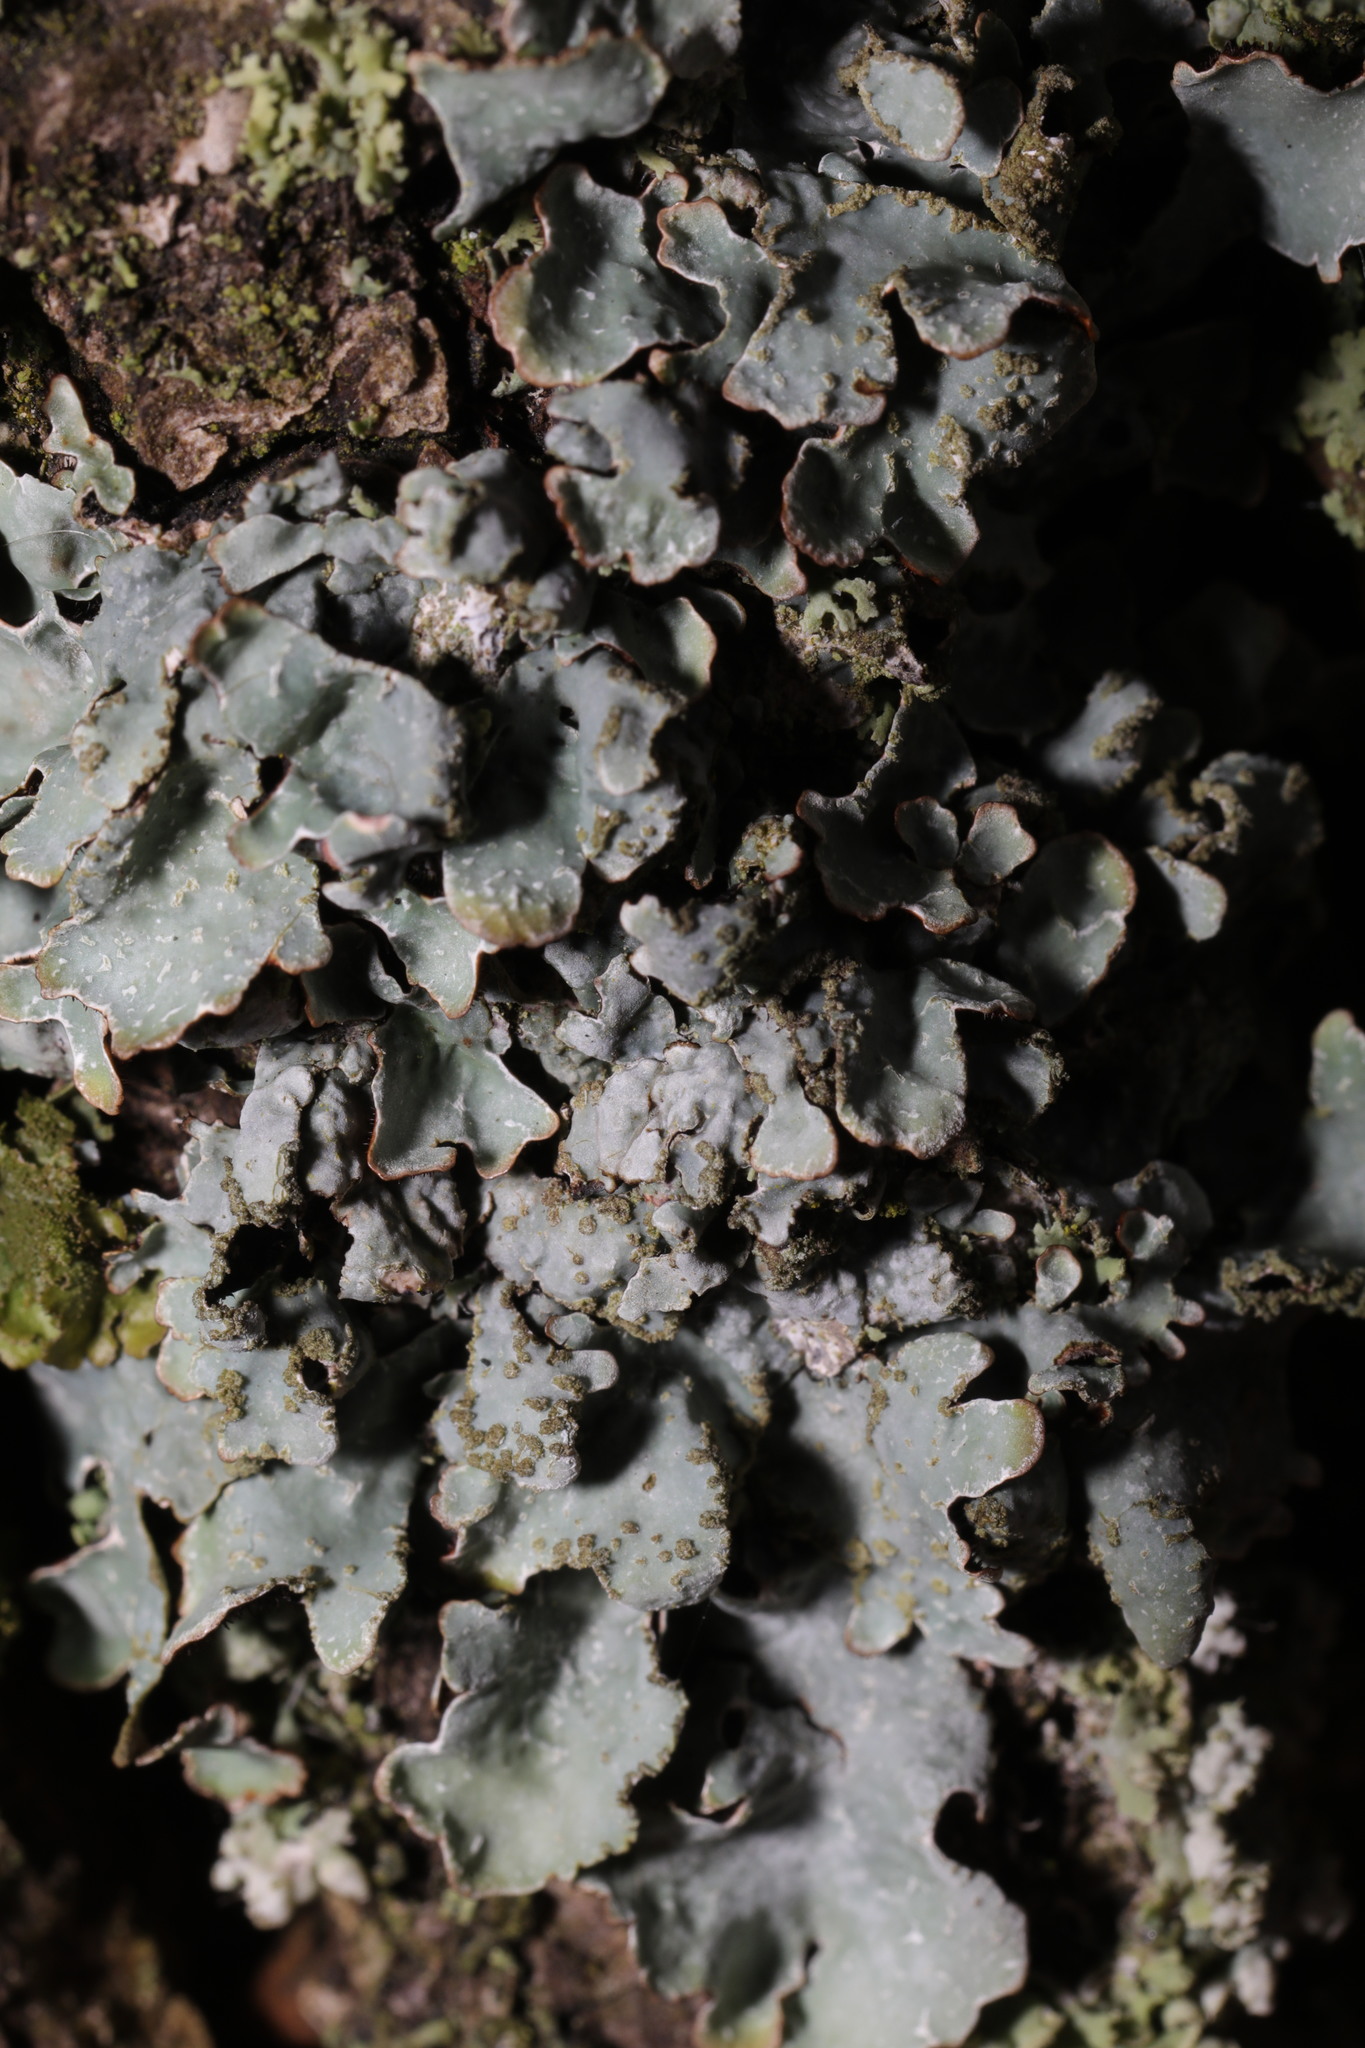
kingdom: Fungi
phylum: Ascomycota
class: Lecanoromycetes
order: Lecanorales
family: Parmeliaceae
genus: Parmelia
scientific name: Parmelia sulcata
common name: Netted shield lichen
